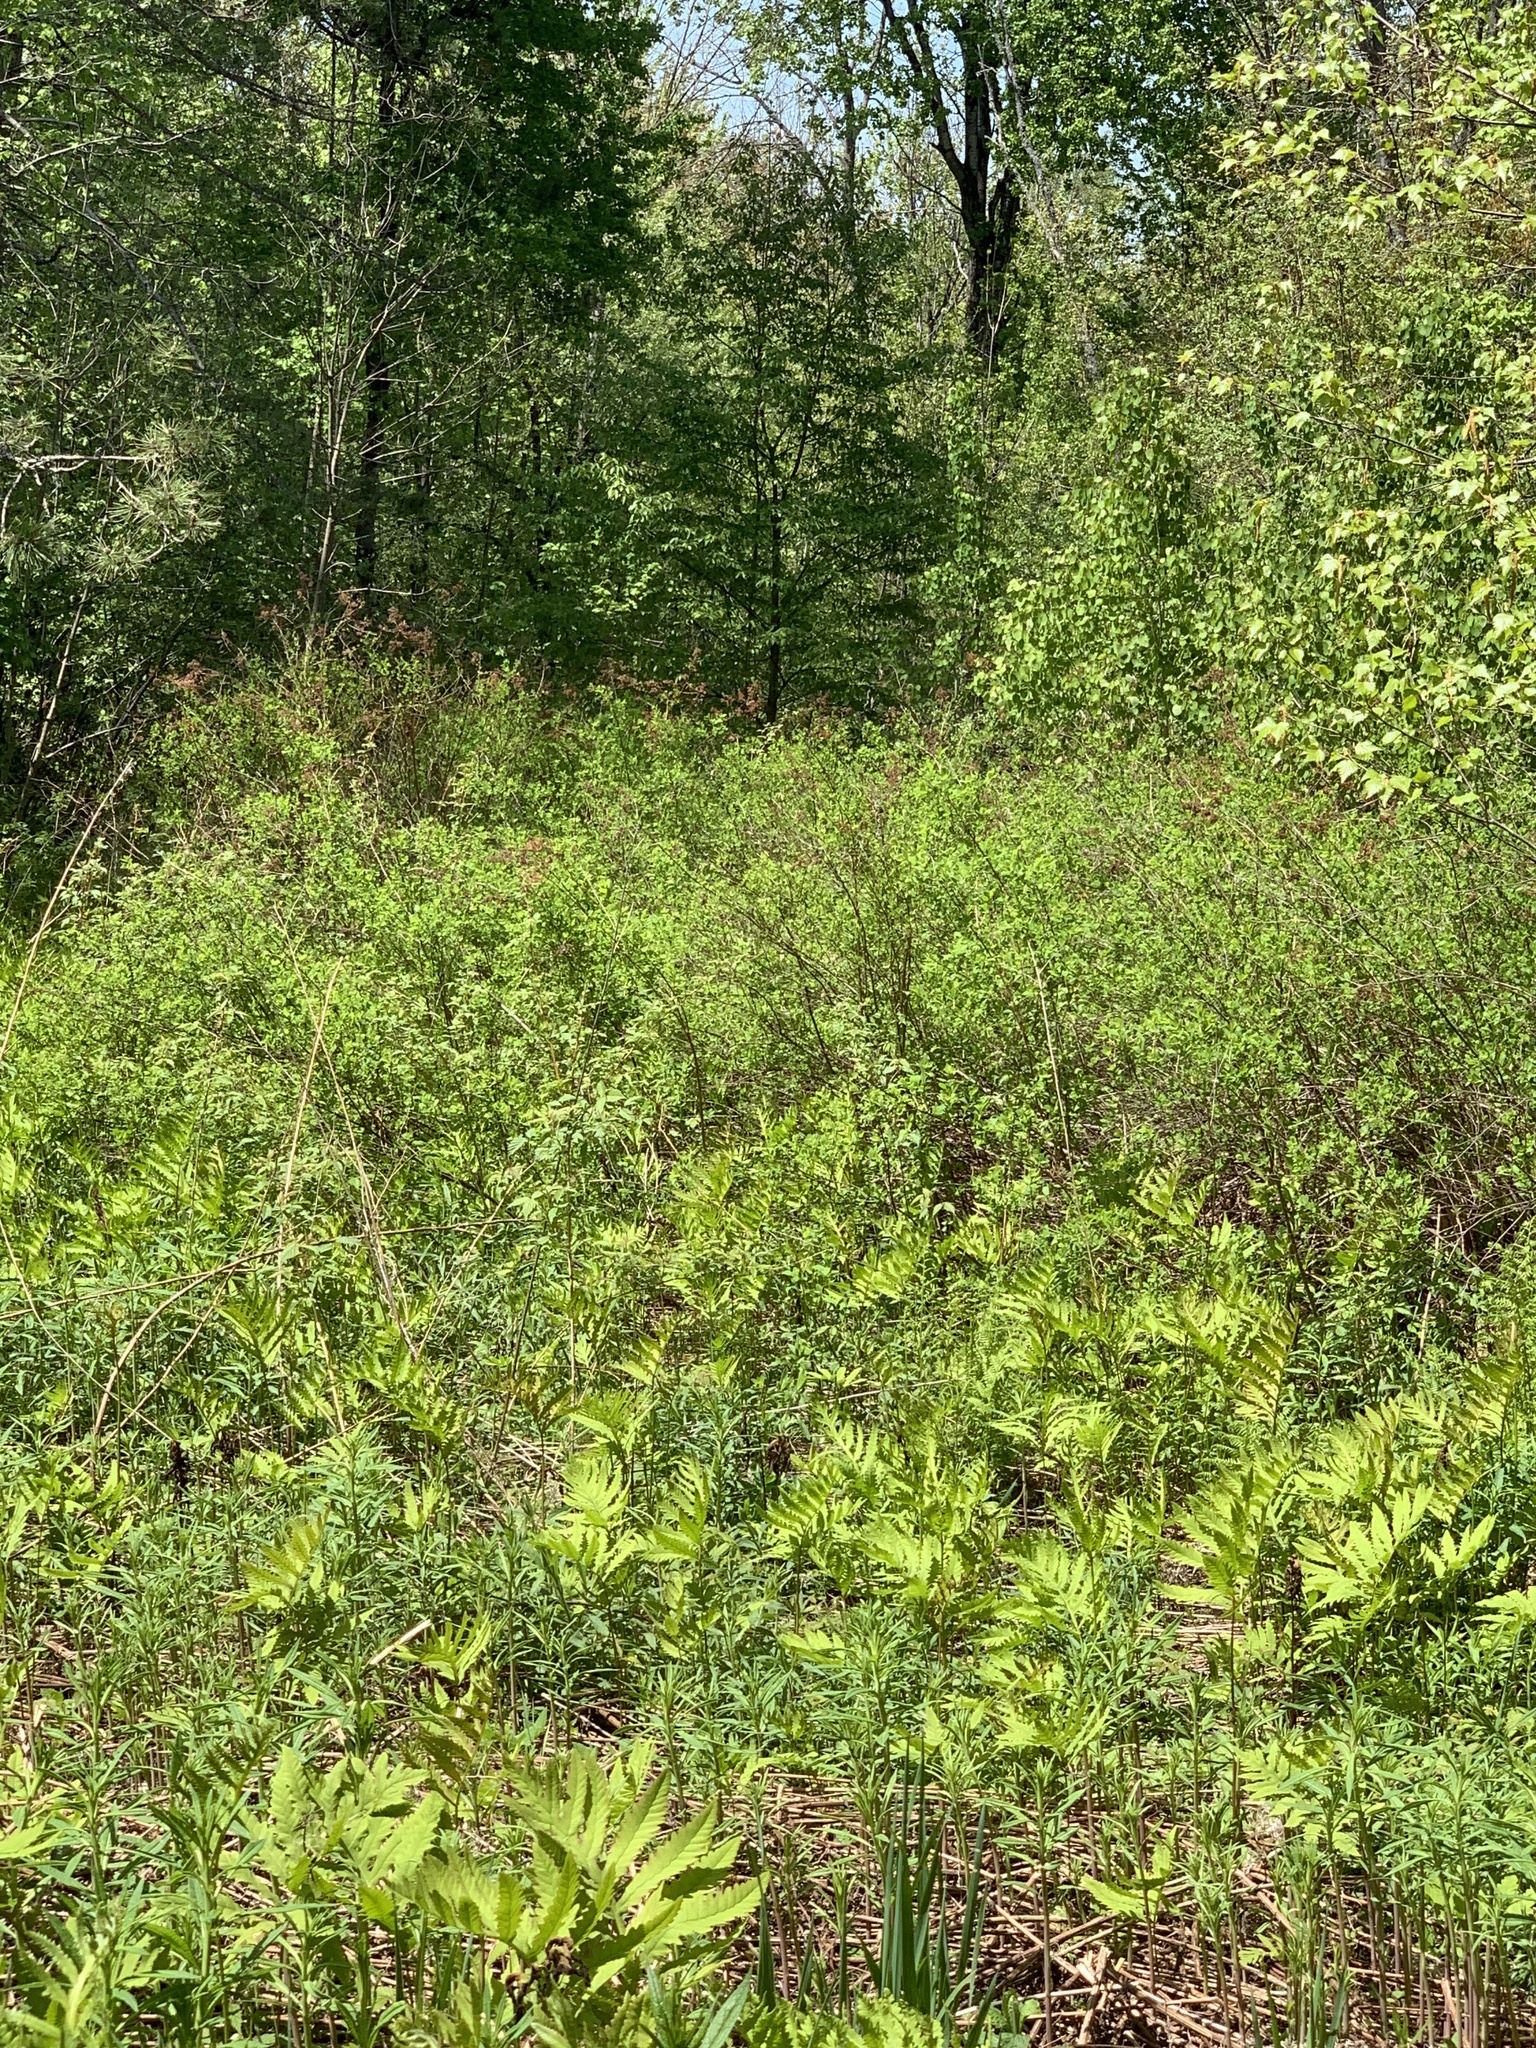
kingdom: Plantae
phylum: Tracheophyta
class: Magnoliopsida
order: Rosales
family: Rosaceae
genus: Spiraea
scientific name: Spiraea alba
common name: Pale bridewort
